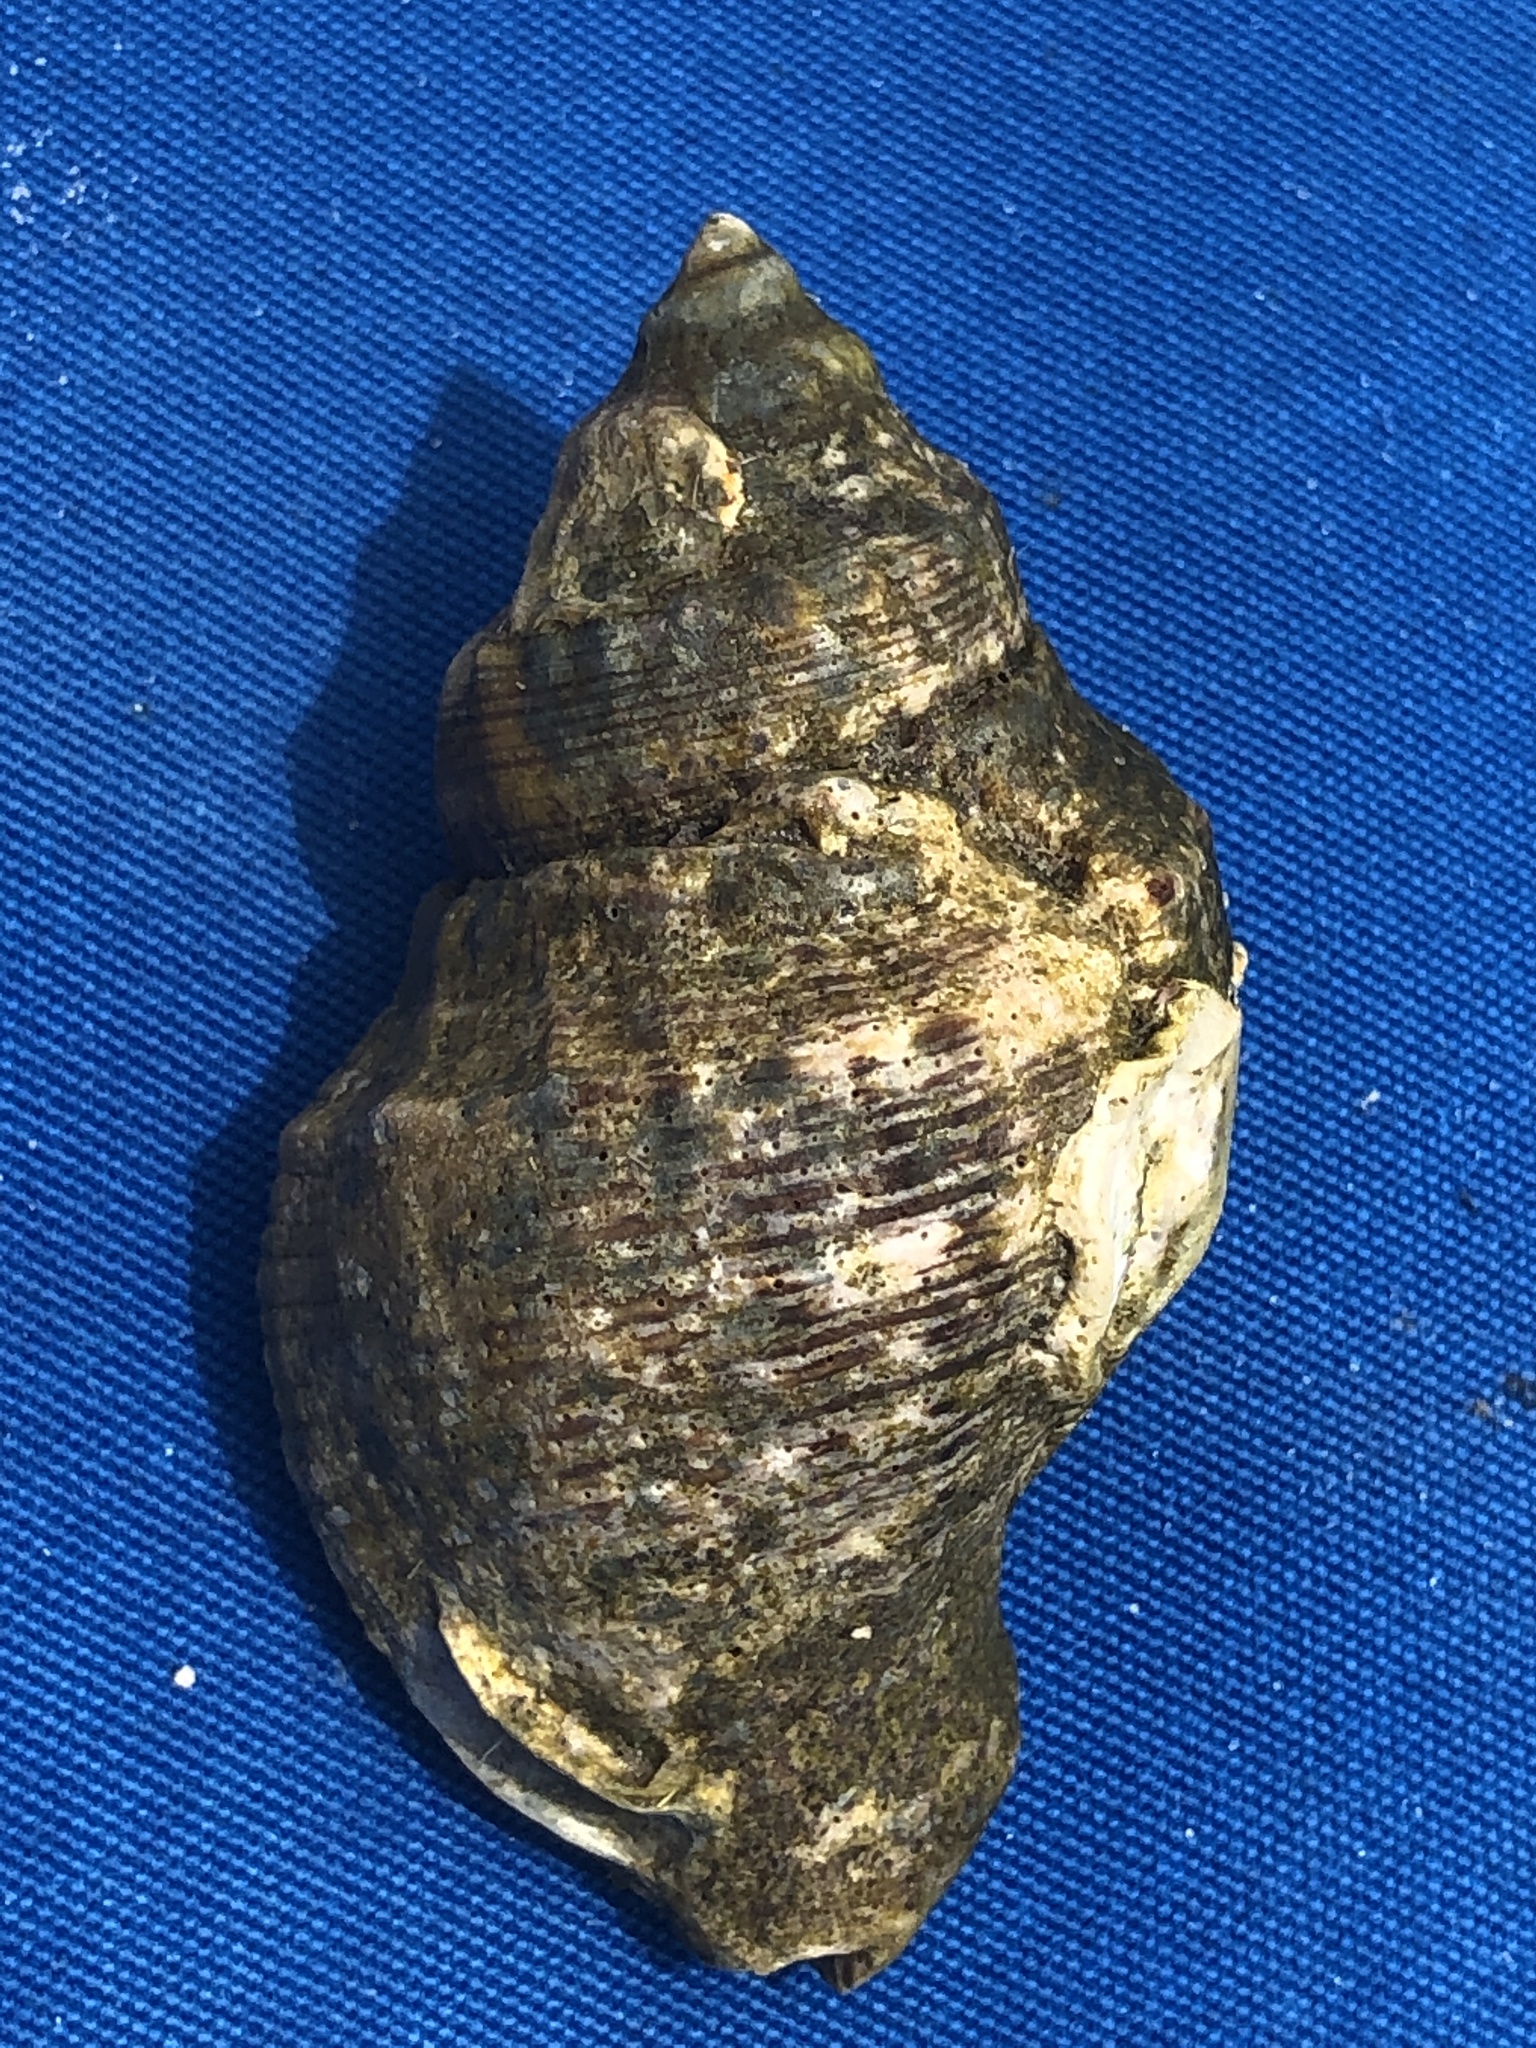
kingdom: Animalia
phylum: Mollusca
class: Gastropoda
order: Neogastropoda
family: Muricidae
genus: Stramonita
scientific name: Stramonita canaliculata
